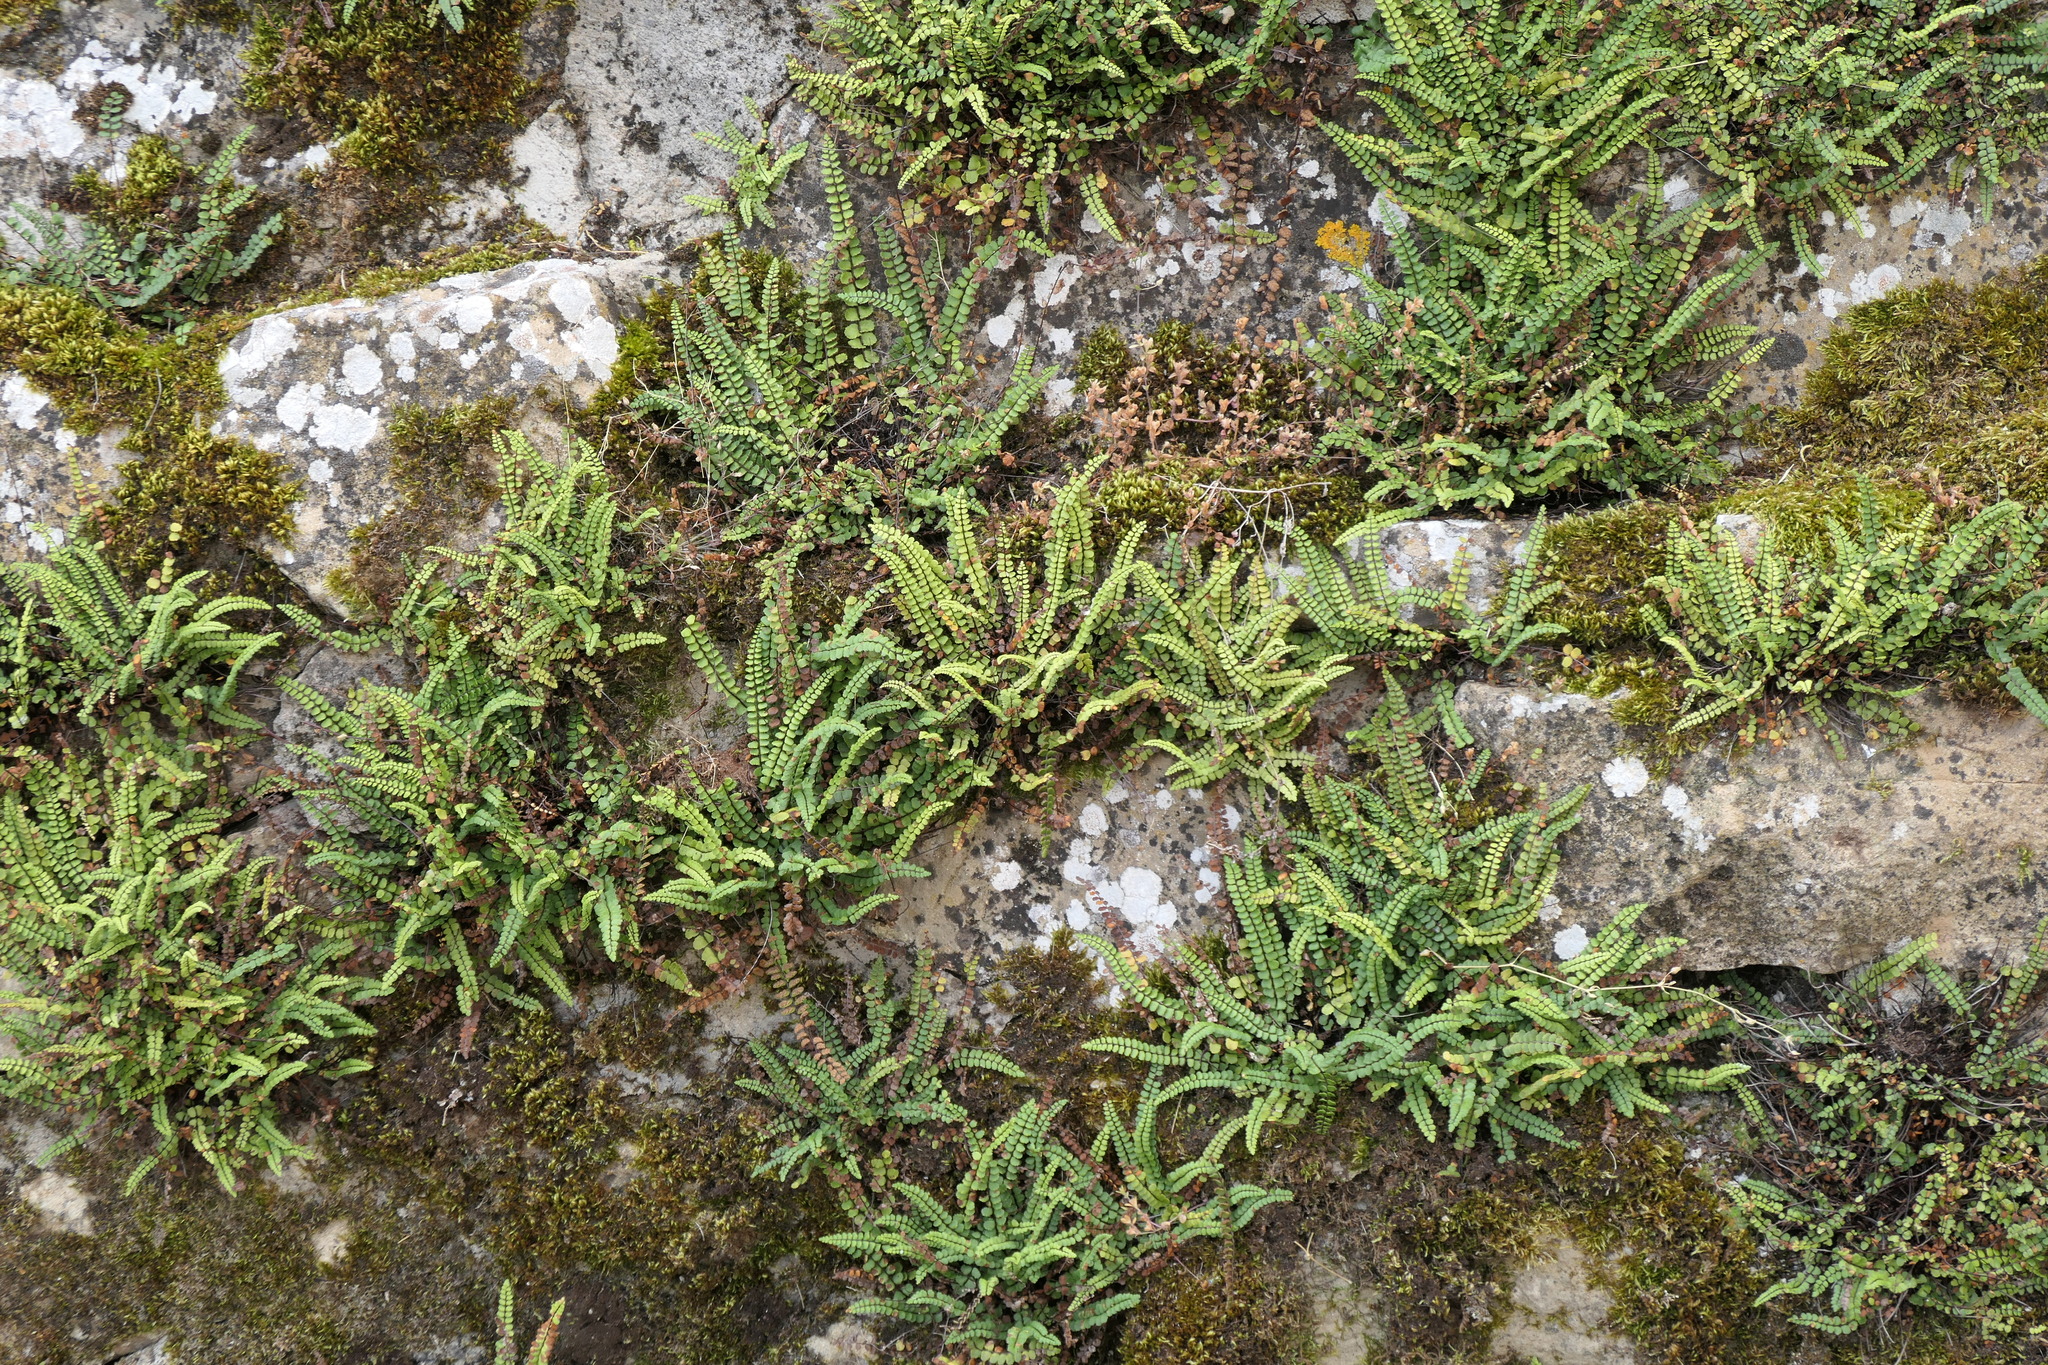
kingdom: Plantae
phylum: Tracheophyta
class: Polypodiopsida
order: Polypodiales
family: Aspleniaceae
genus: Asplenium
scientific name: Asplenium trichomanes
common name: Maidenhair spleenwort
